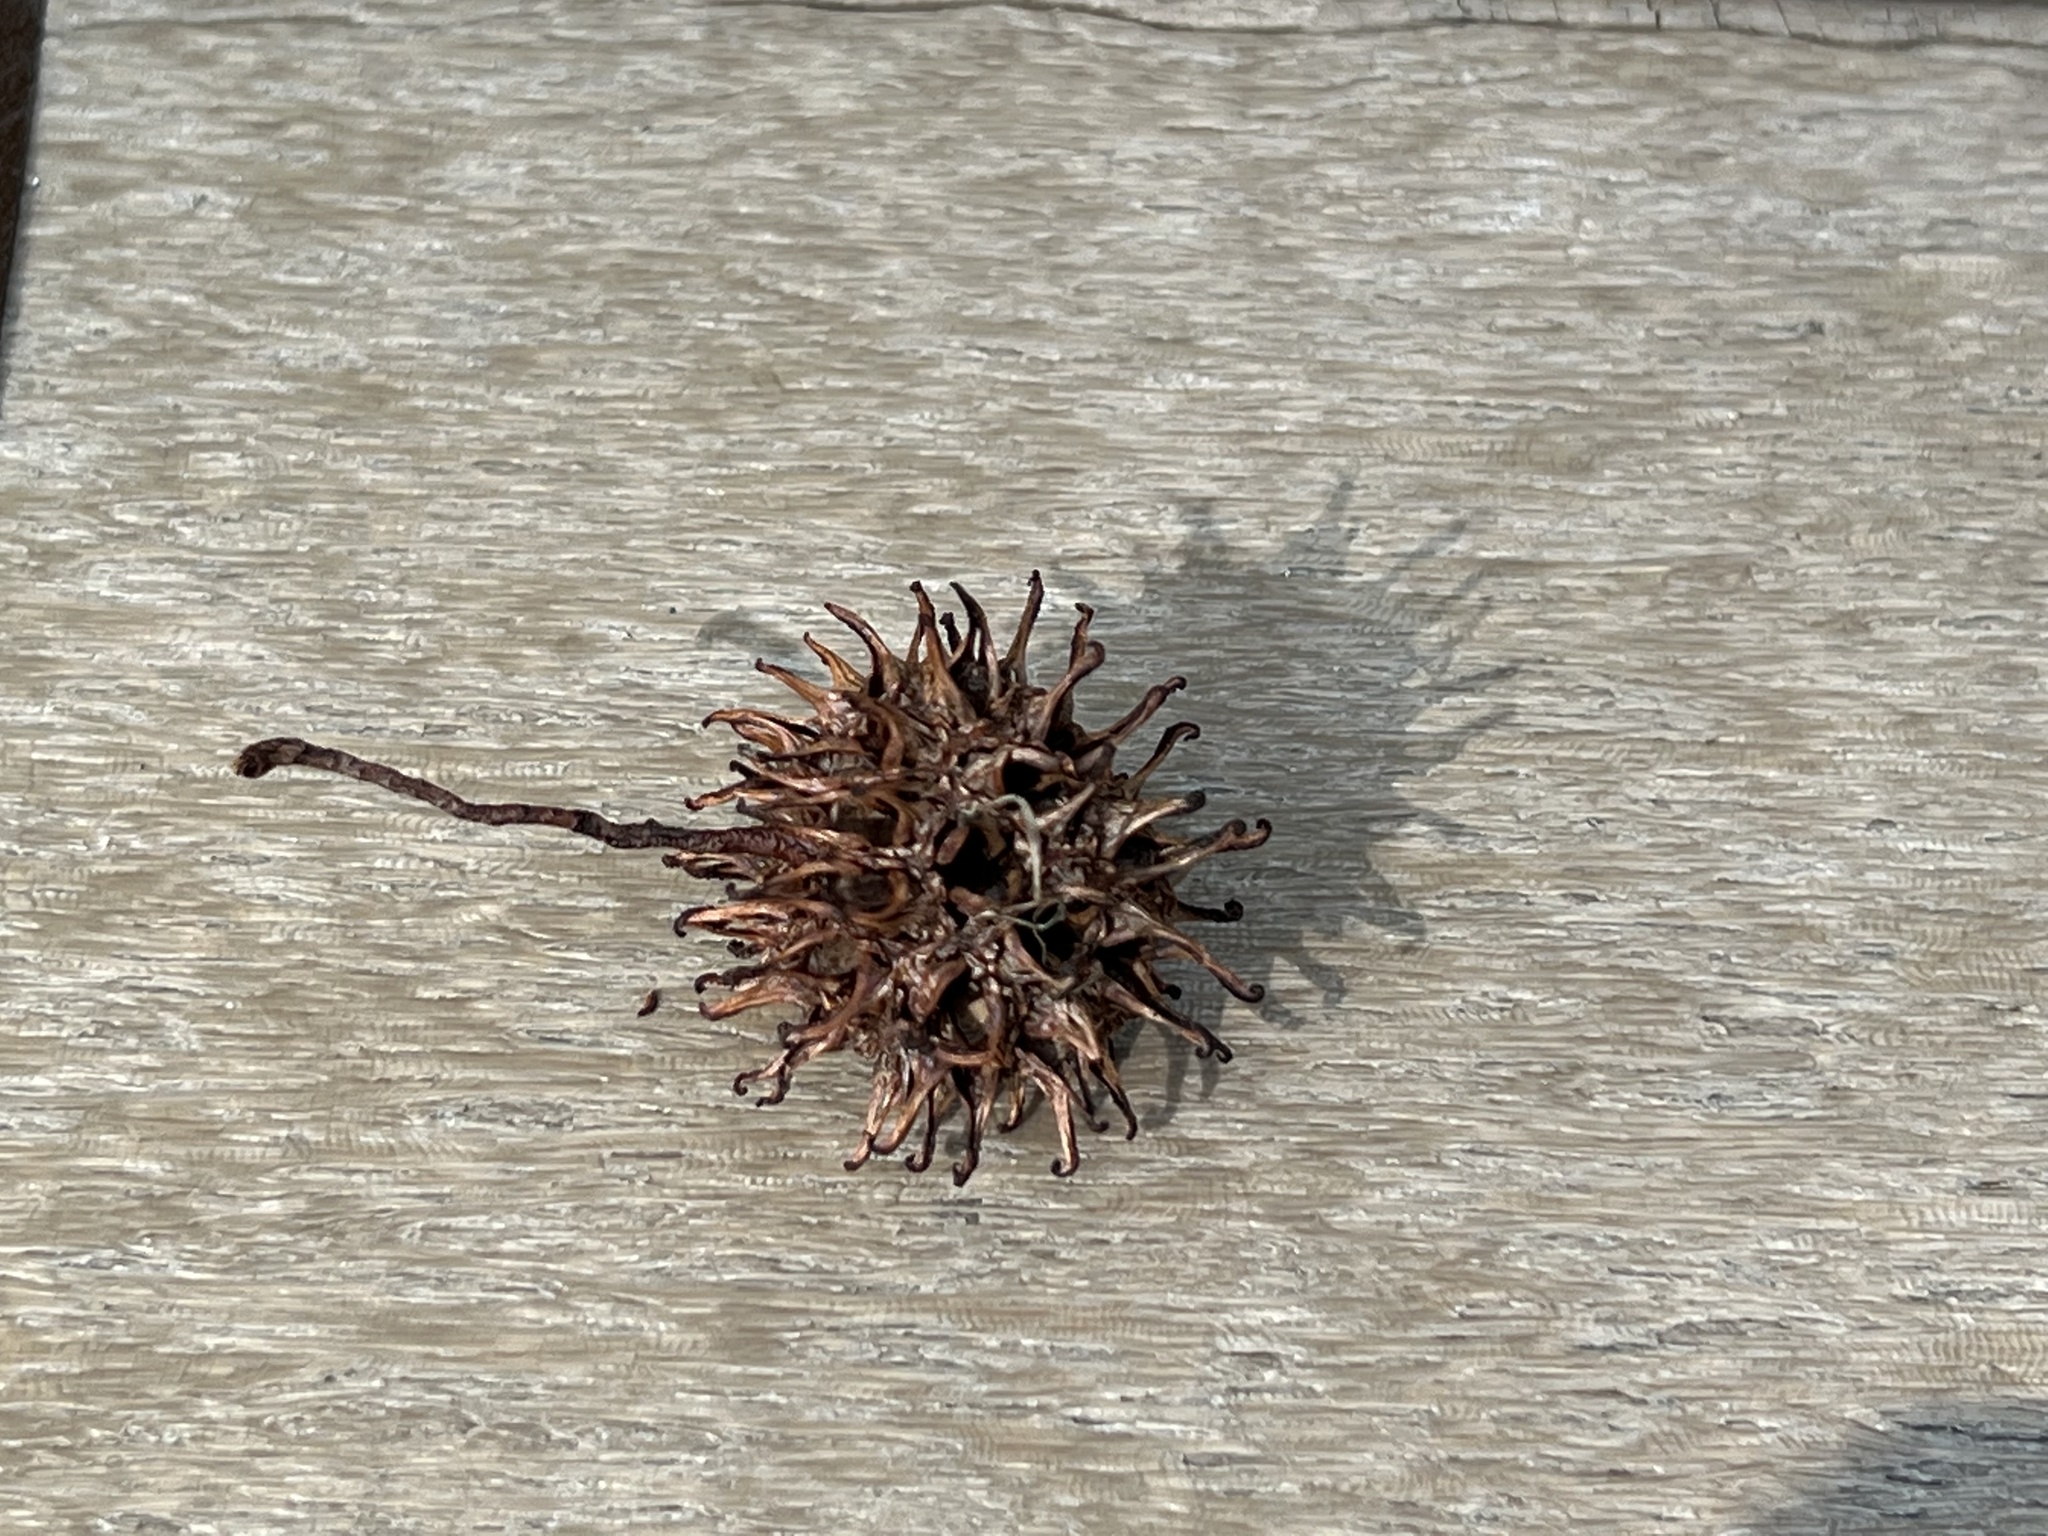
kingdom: Plantae
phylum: Tracheophyta
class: Magnoliopsida
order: Saxifragales
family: Altingiaceae
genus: Liquidambar
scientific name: Liquidambar styraciflua
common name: Sweet gum
